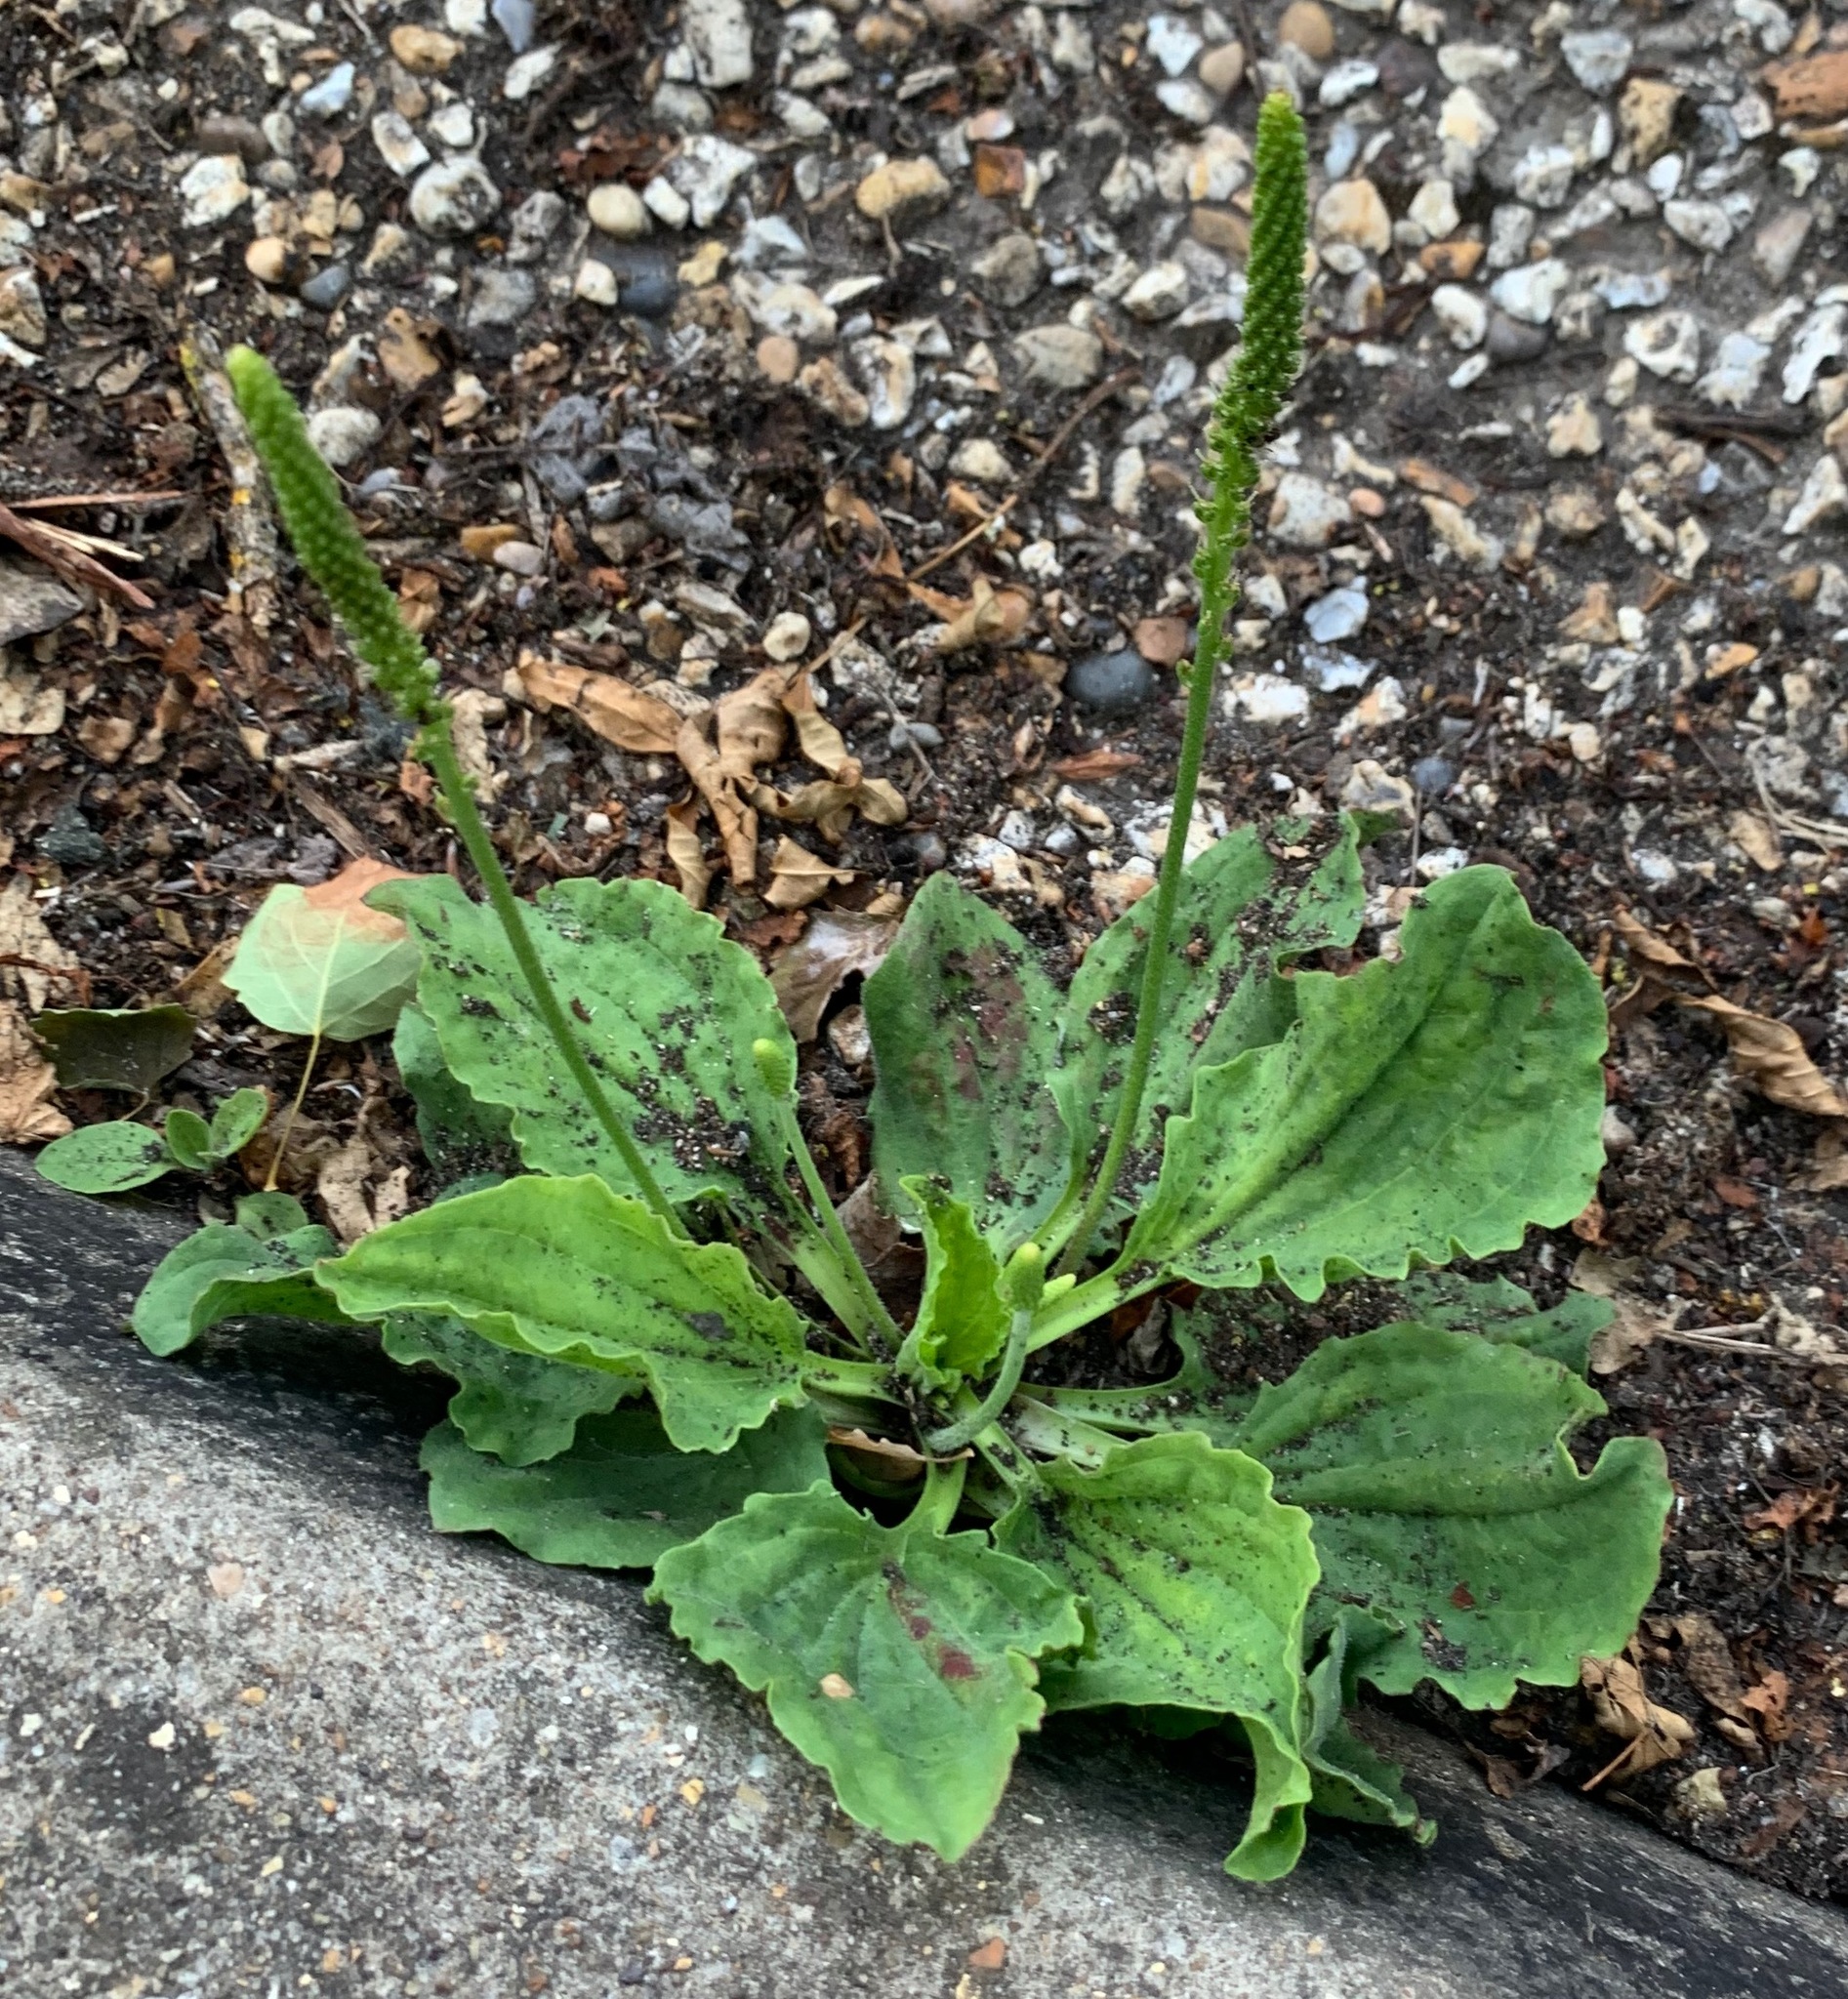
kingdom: Plantae
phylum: Tracheophyta
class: Magnoliopsida
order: Lamiales
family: Plantaginaceae
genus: Plantago
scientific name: Plantago major
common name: Common plantain
